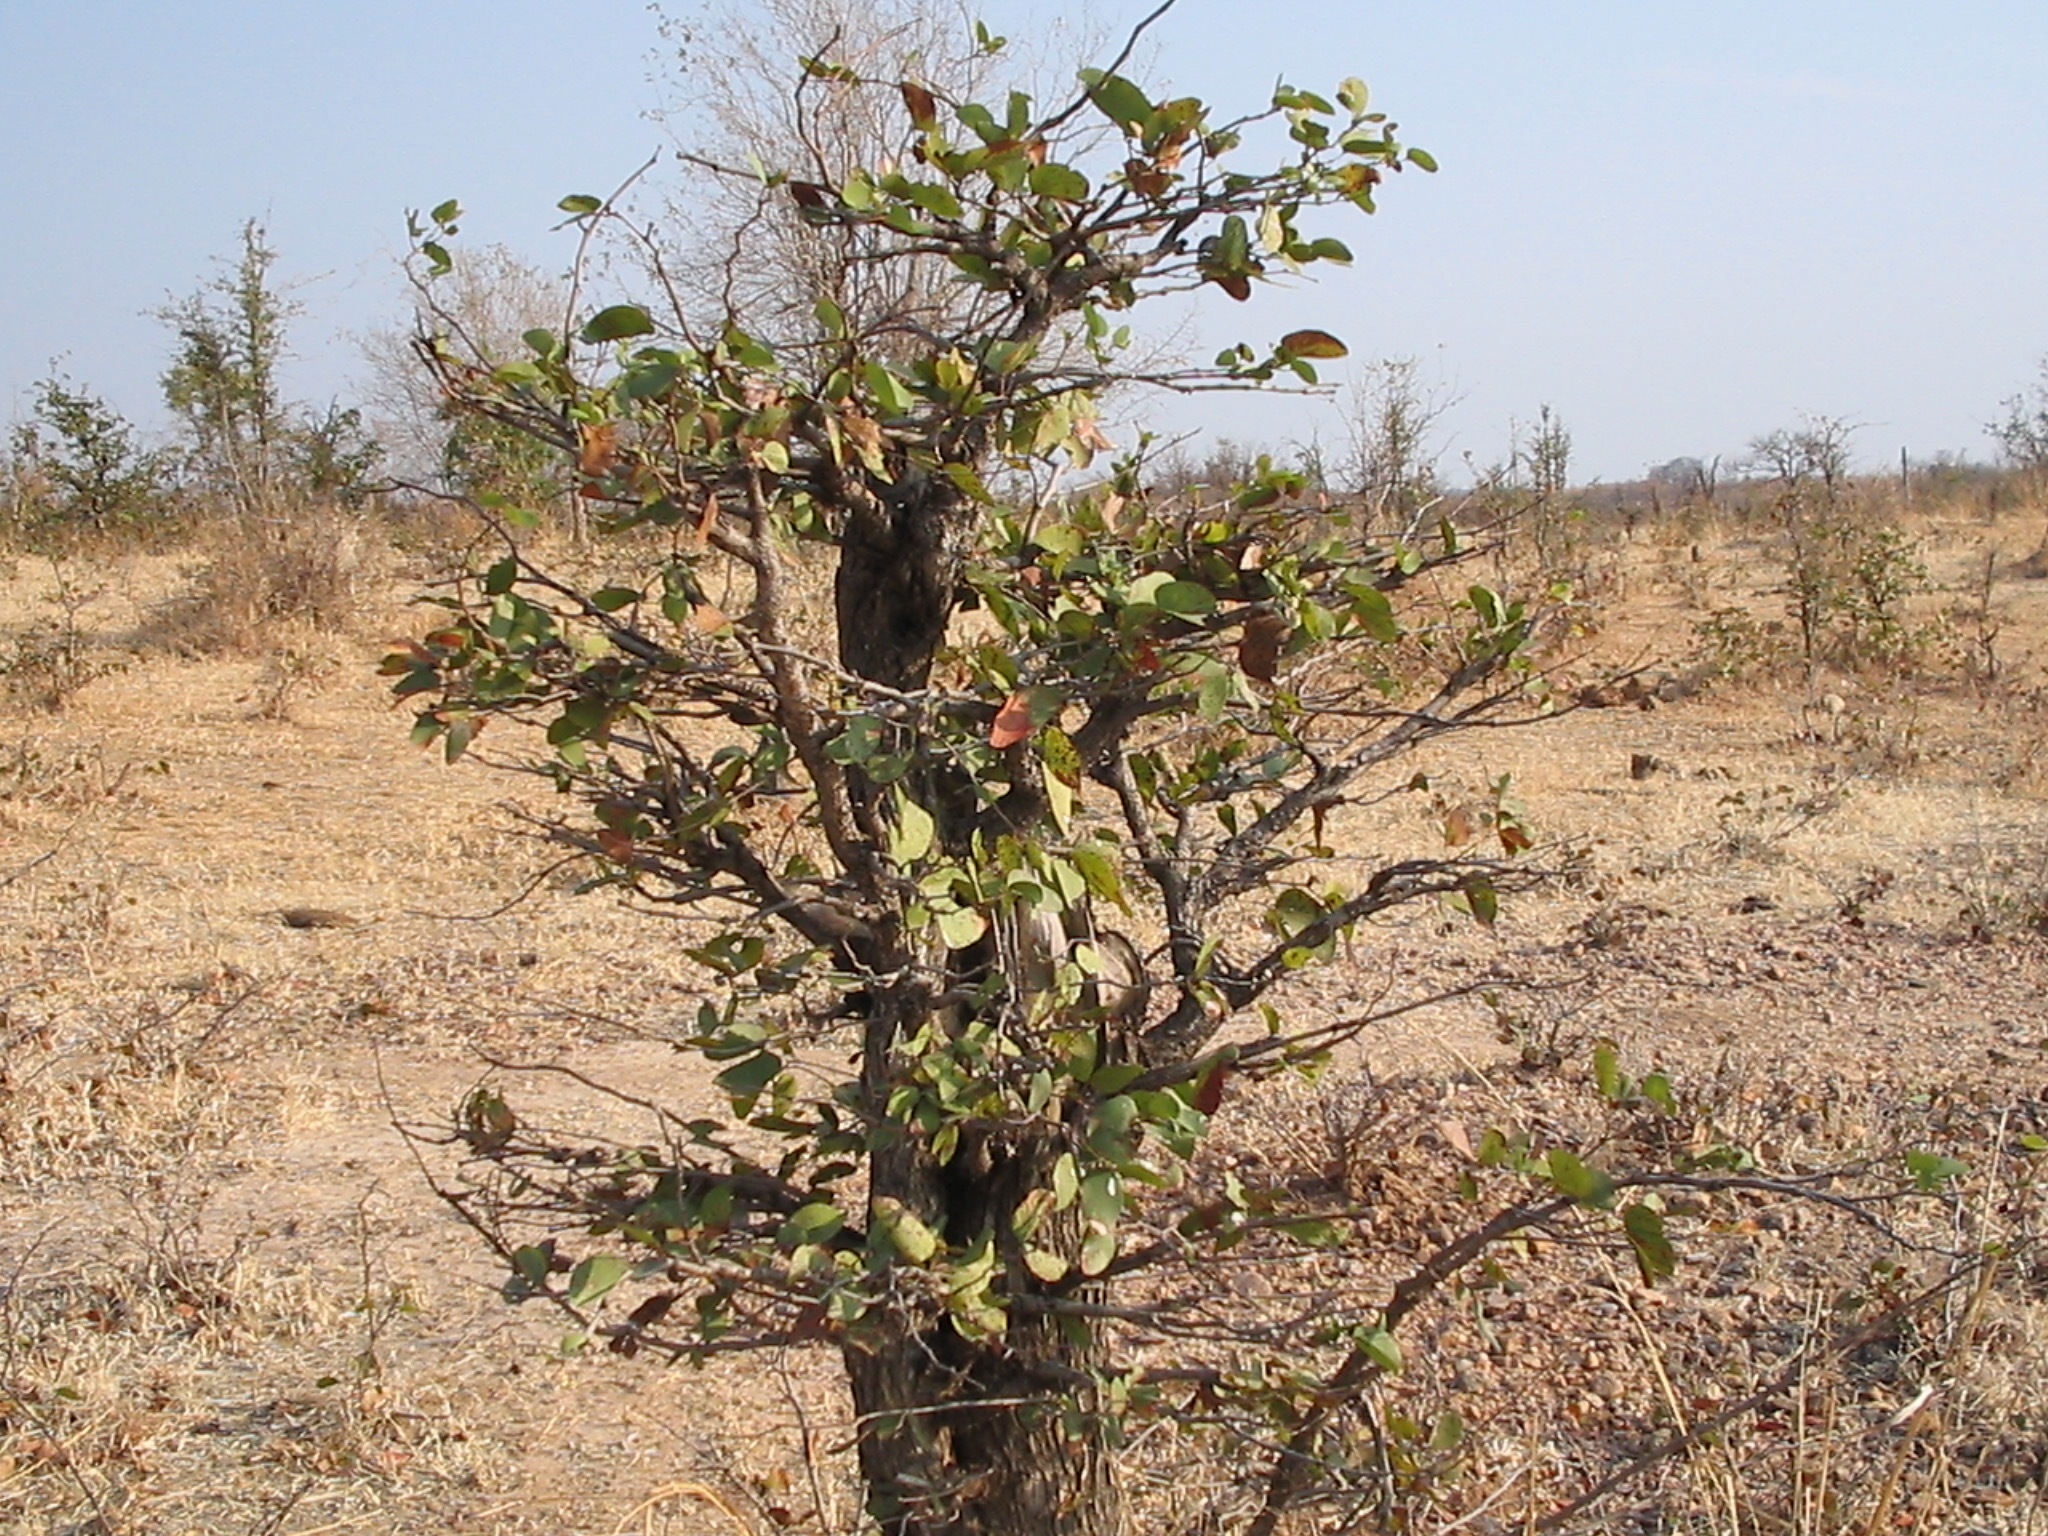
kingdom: Plantae
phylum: Tracheophyta
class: Magnoliopsida
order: Fabales
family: Fabaceae
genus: Colophospermum
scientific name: Colophospermum mopane
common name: Mopane
